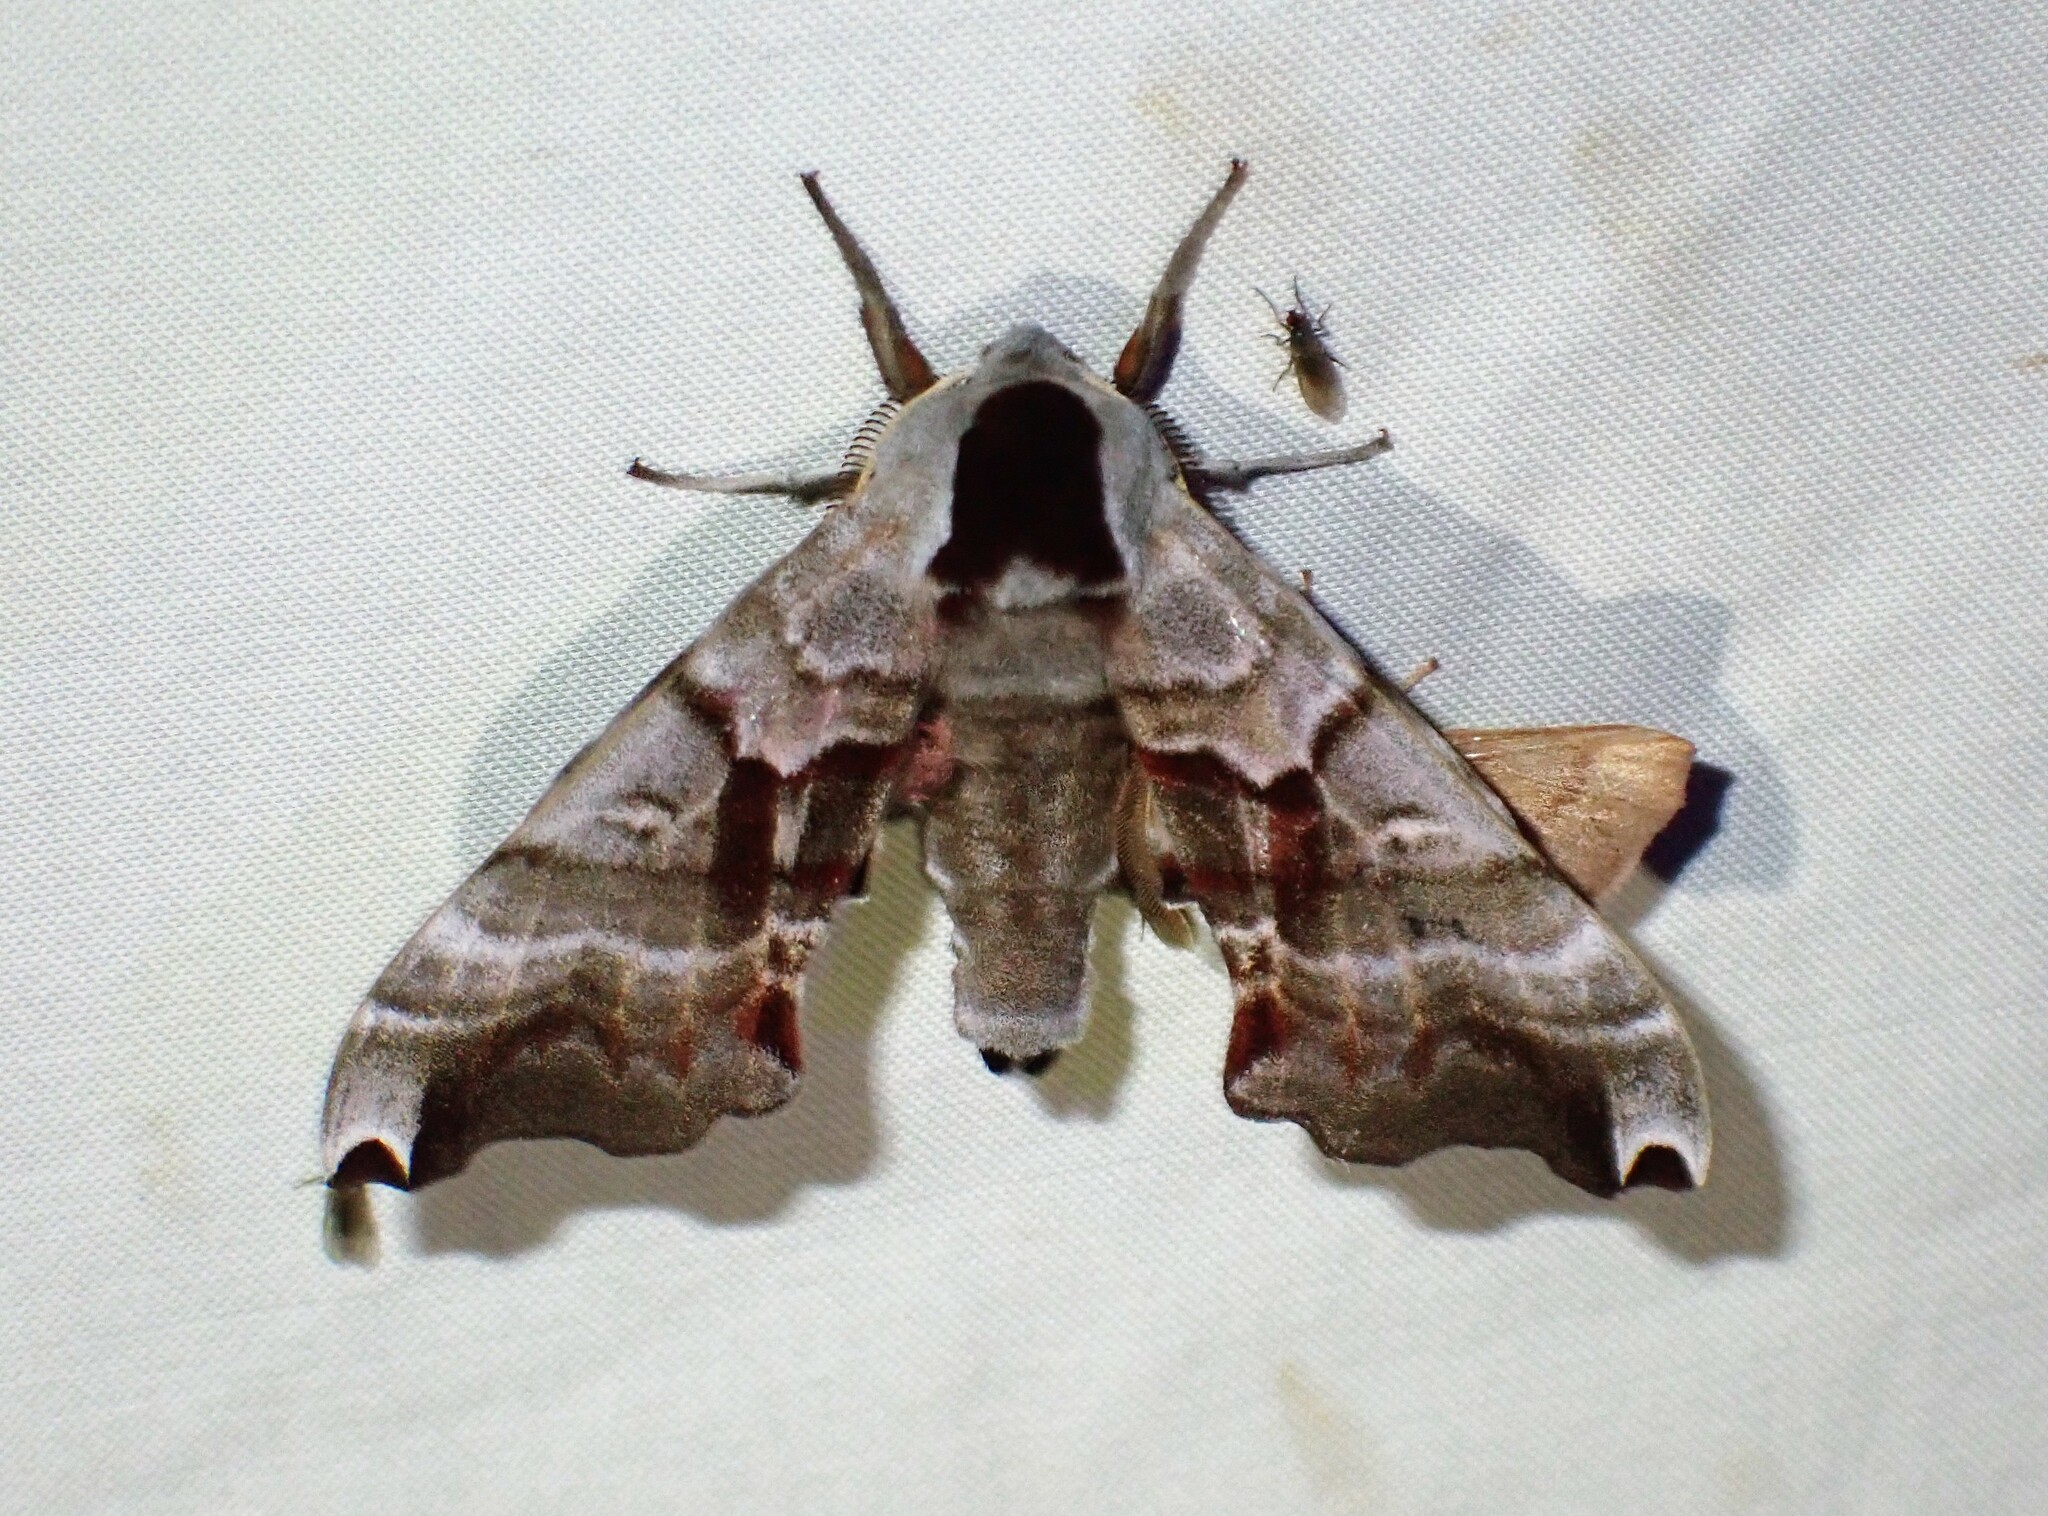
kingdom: Animalia
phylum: Arthropoda
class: Insecta
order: Lepidoptera
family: Sphingidae
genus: Smerinthus
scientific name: Smerinthus jamaicensis
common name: Twin spotted sphinx
